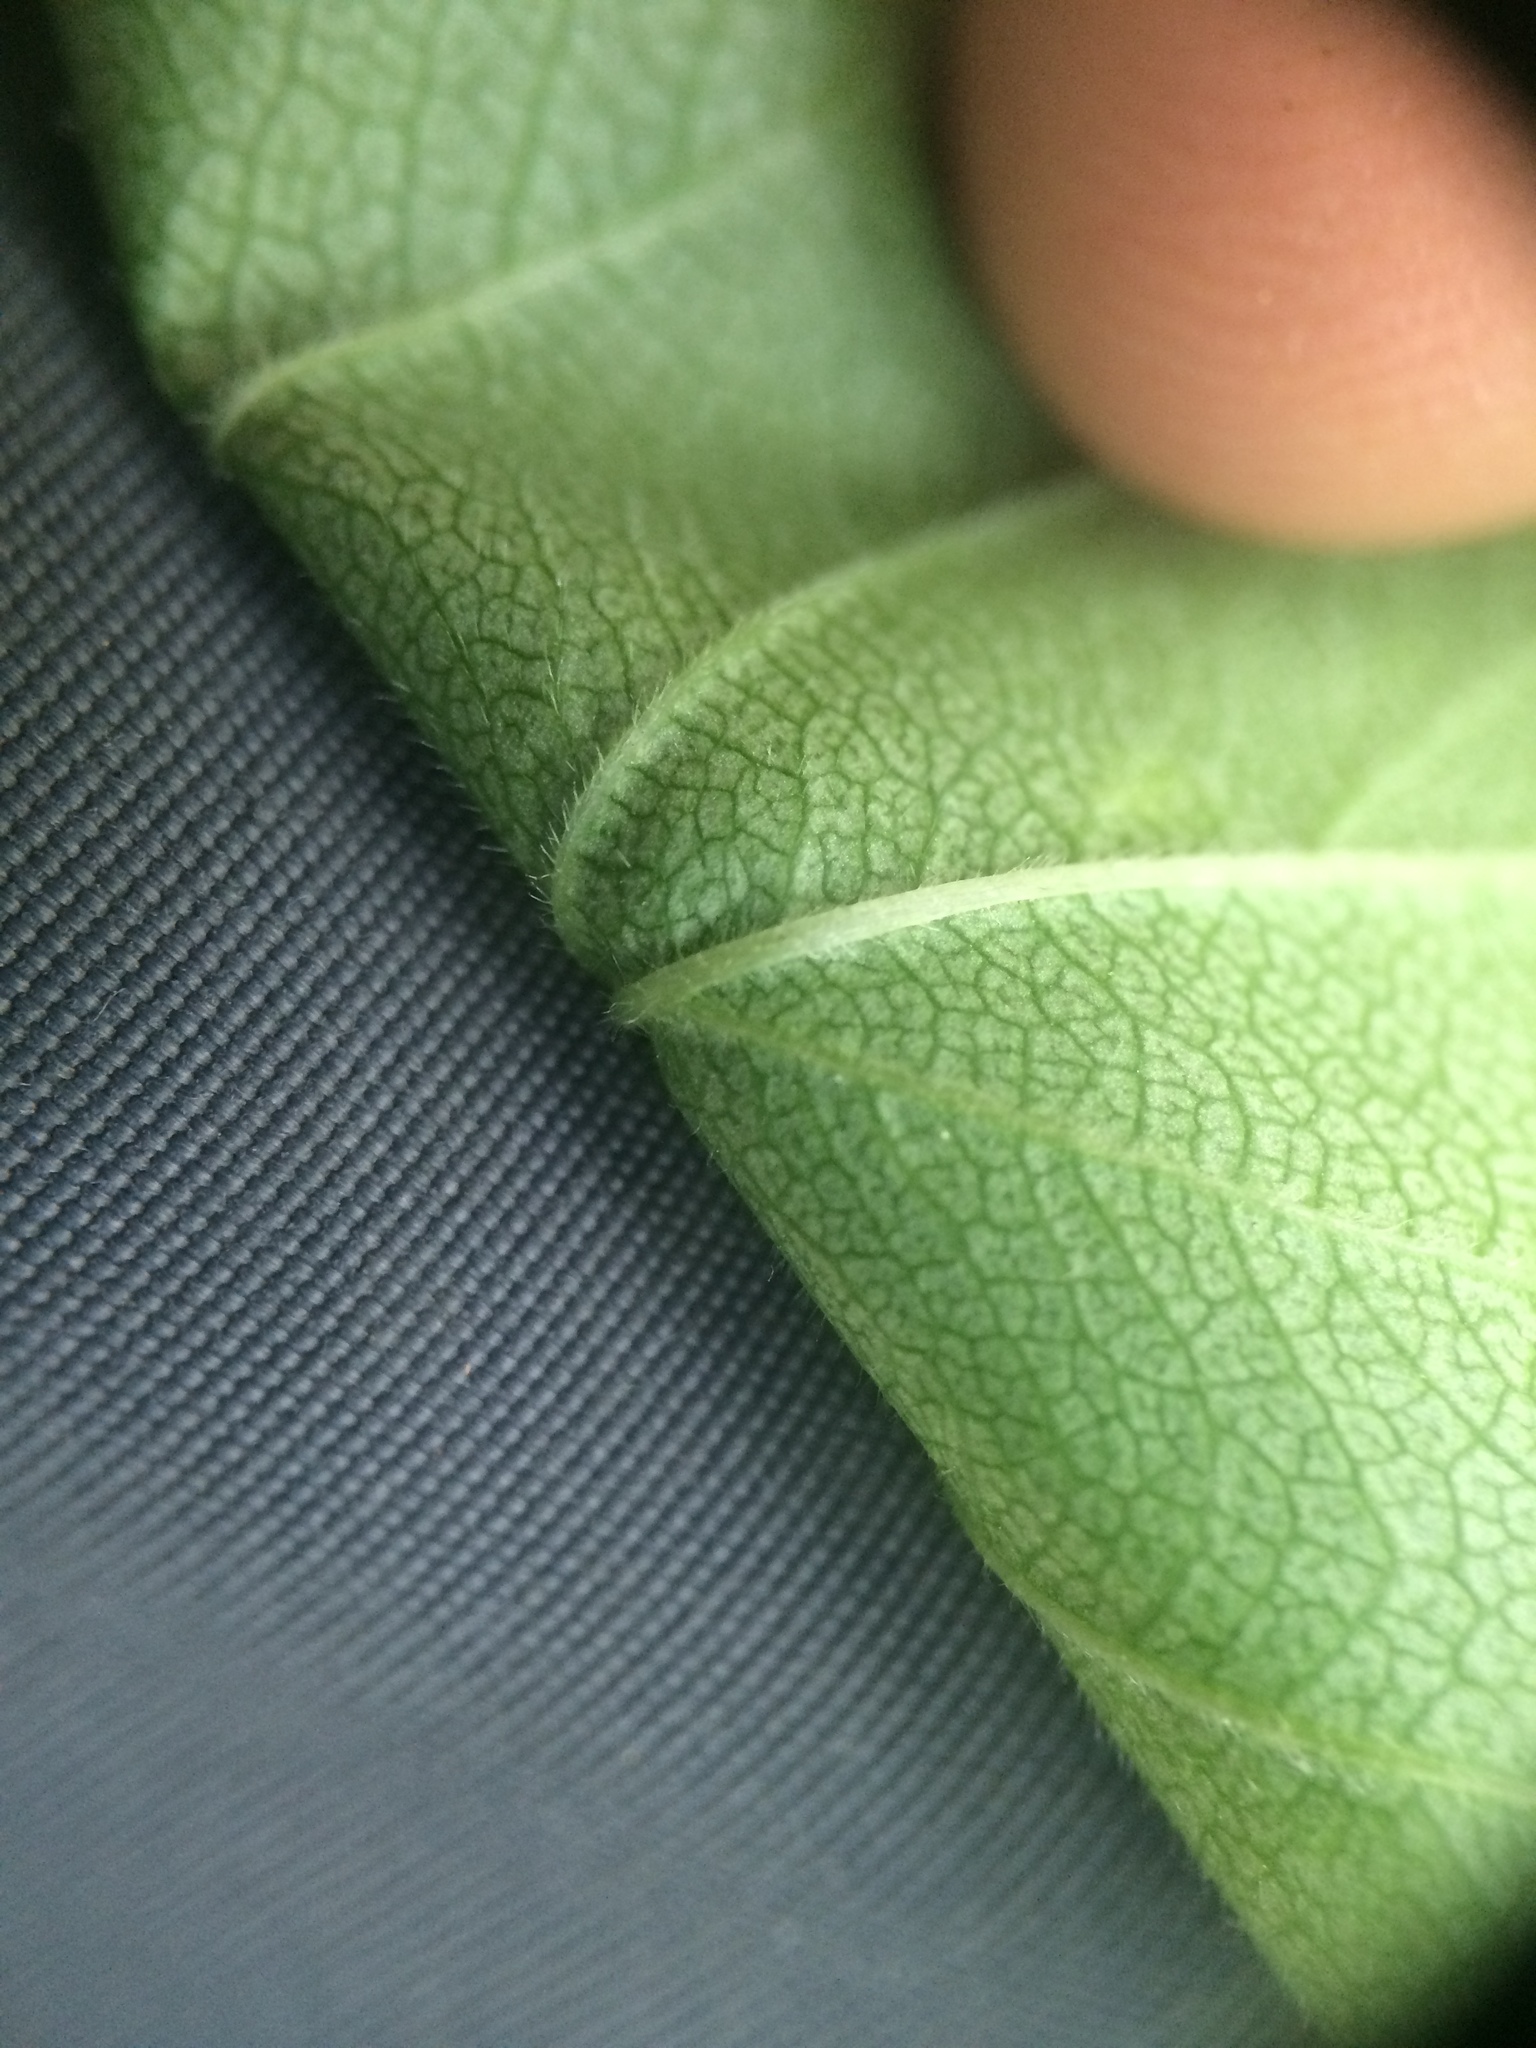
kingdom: Plantae
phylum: Tracheophyta
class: Magnoliopsida
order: Rosales
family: Rosaceae
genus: Crataegus
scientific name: Crataegus scabrida
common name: Rough hawthorn
